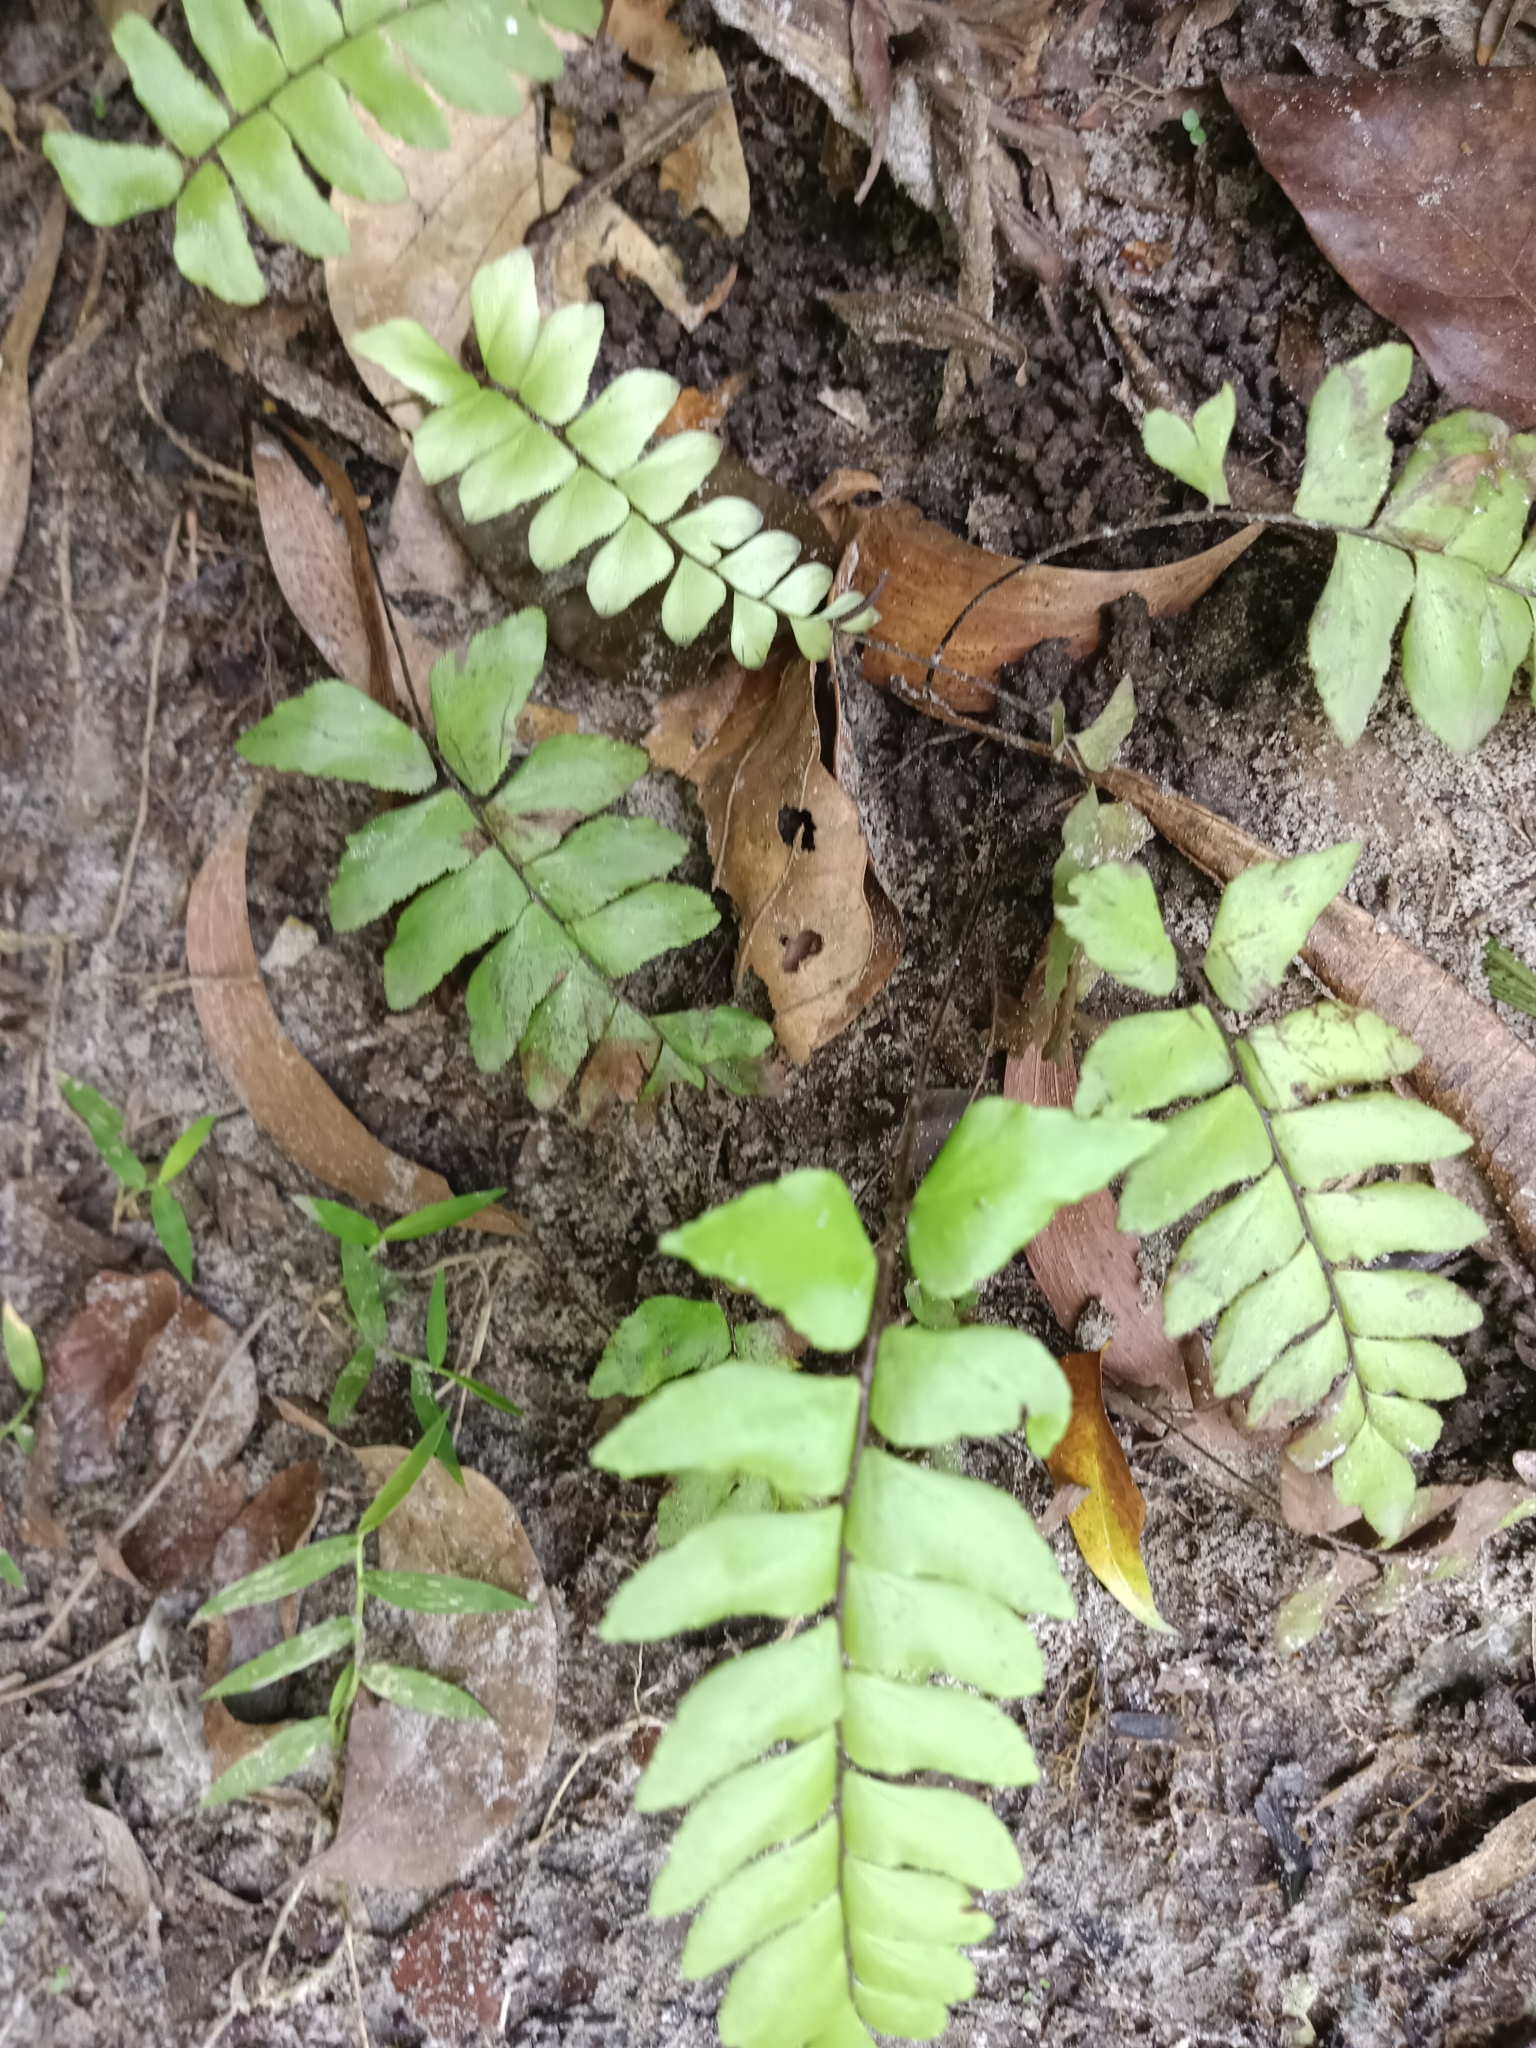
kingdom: Plantae
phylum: Tracheophyta
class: Polypodiopsida
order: Polypodiales
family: Pteridaceae
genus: Adiantum
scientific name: Adiantum latifolium
